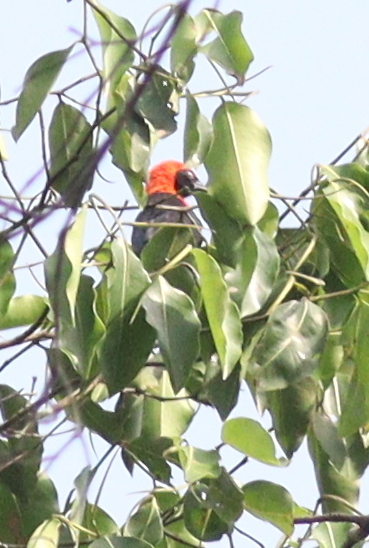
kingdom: Animalia
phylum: Chordata
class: Aves
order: Passeriformes
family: Ploceidae
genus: Malimbus
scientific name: Malimbus scutatus
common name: Red-vented malimbe
